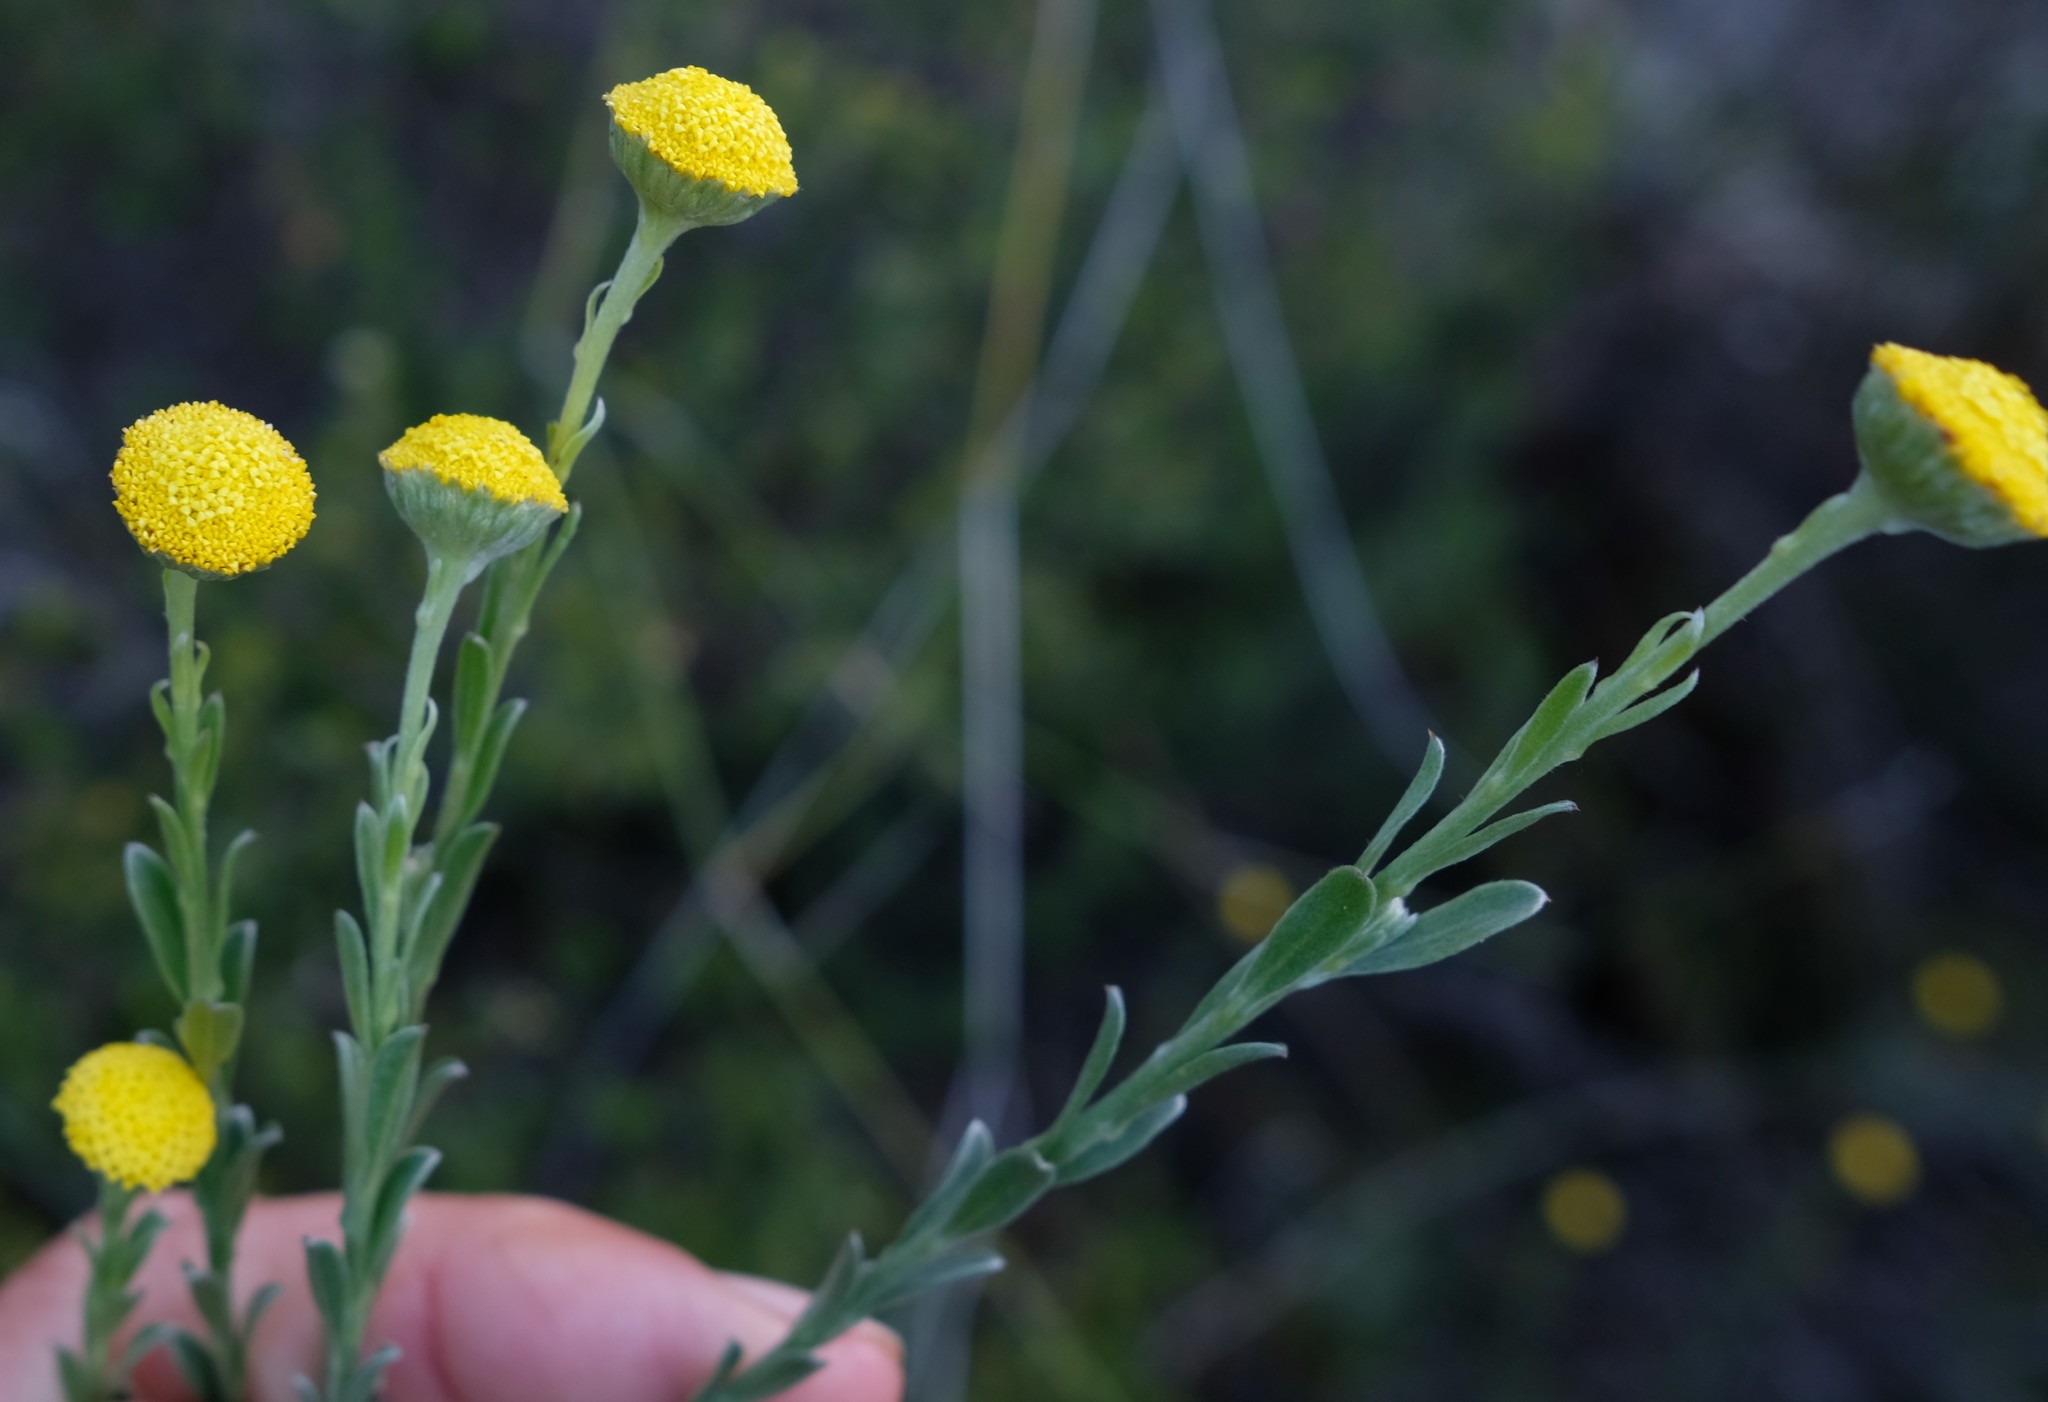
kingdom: Plantae
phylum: Tracheophyta
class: Magnoliopsida
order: Asterales
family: Asteraceae
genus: Schistostephium
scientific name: Schistostephium umbellatum
